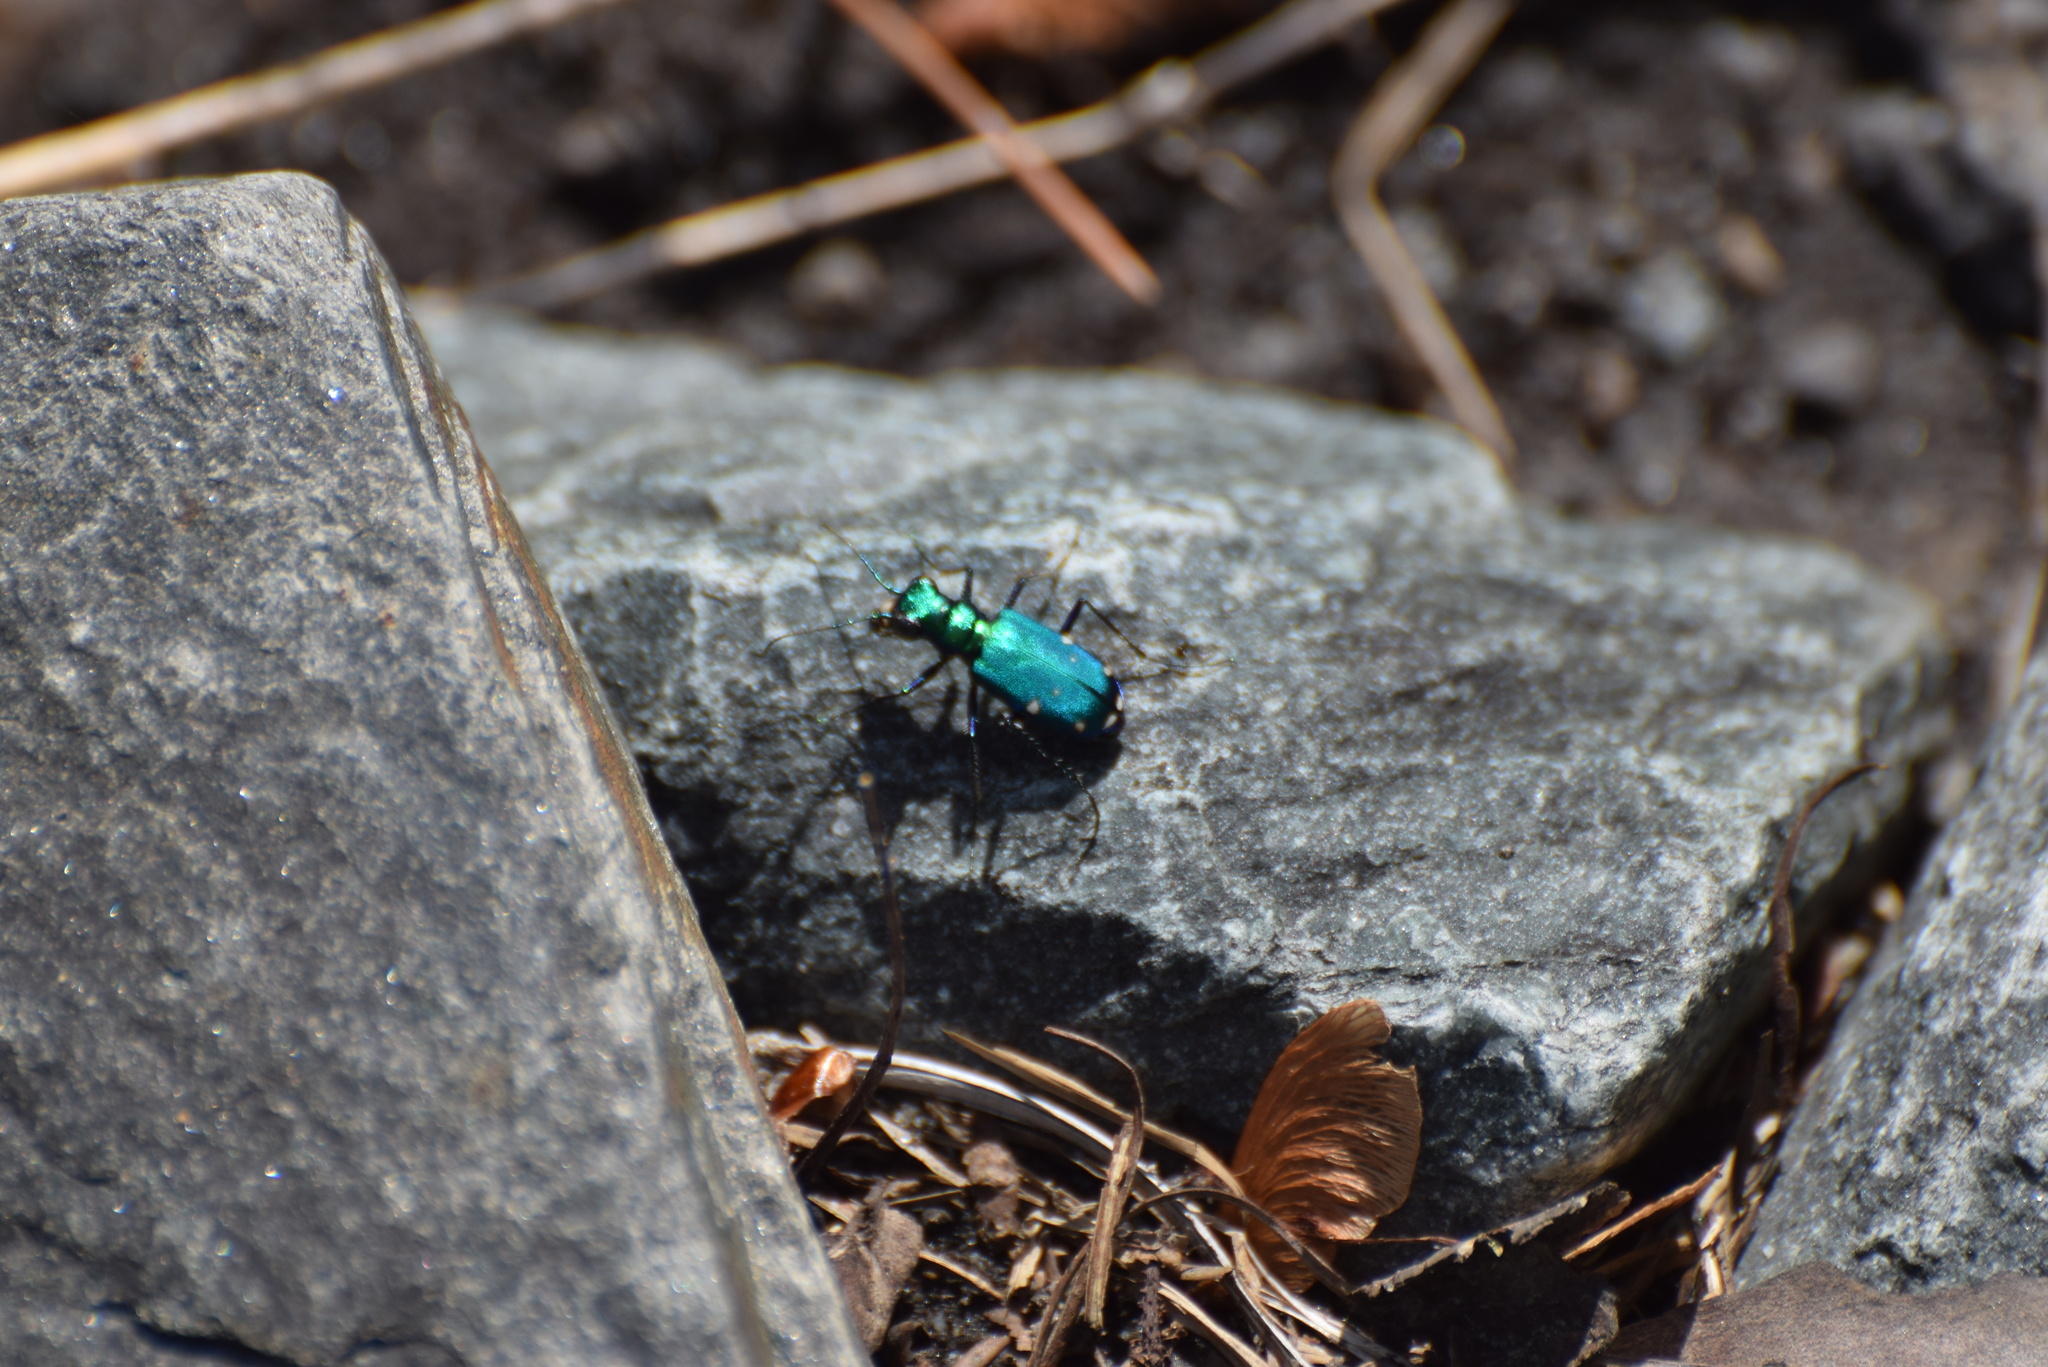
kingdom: Animalia
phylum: Arthropoda
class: Insecta
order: Coleoptera
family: Carabidae
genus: Cicindela
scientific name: Cicindela sexguttata
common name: Six-spotted tiger beetle
